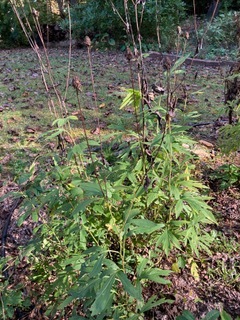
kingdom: Plantae
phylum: Tracheophyta
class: Magnoliopsida
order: Asterales
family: Asteraceae
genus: Rudbeckia
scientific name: Rudbeckia laciniata
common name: Coneflower
